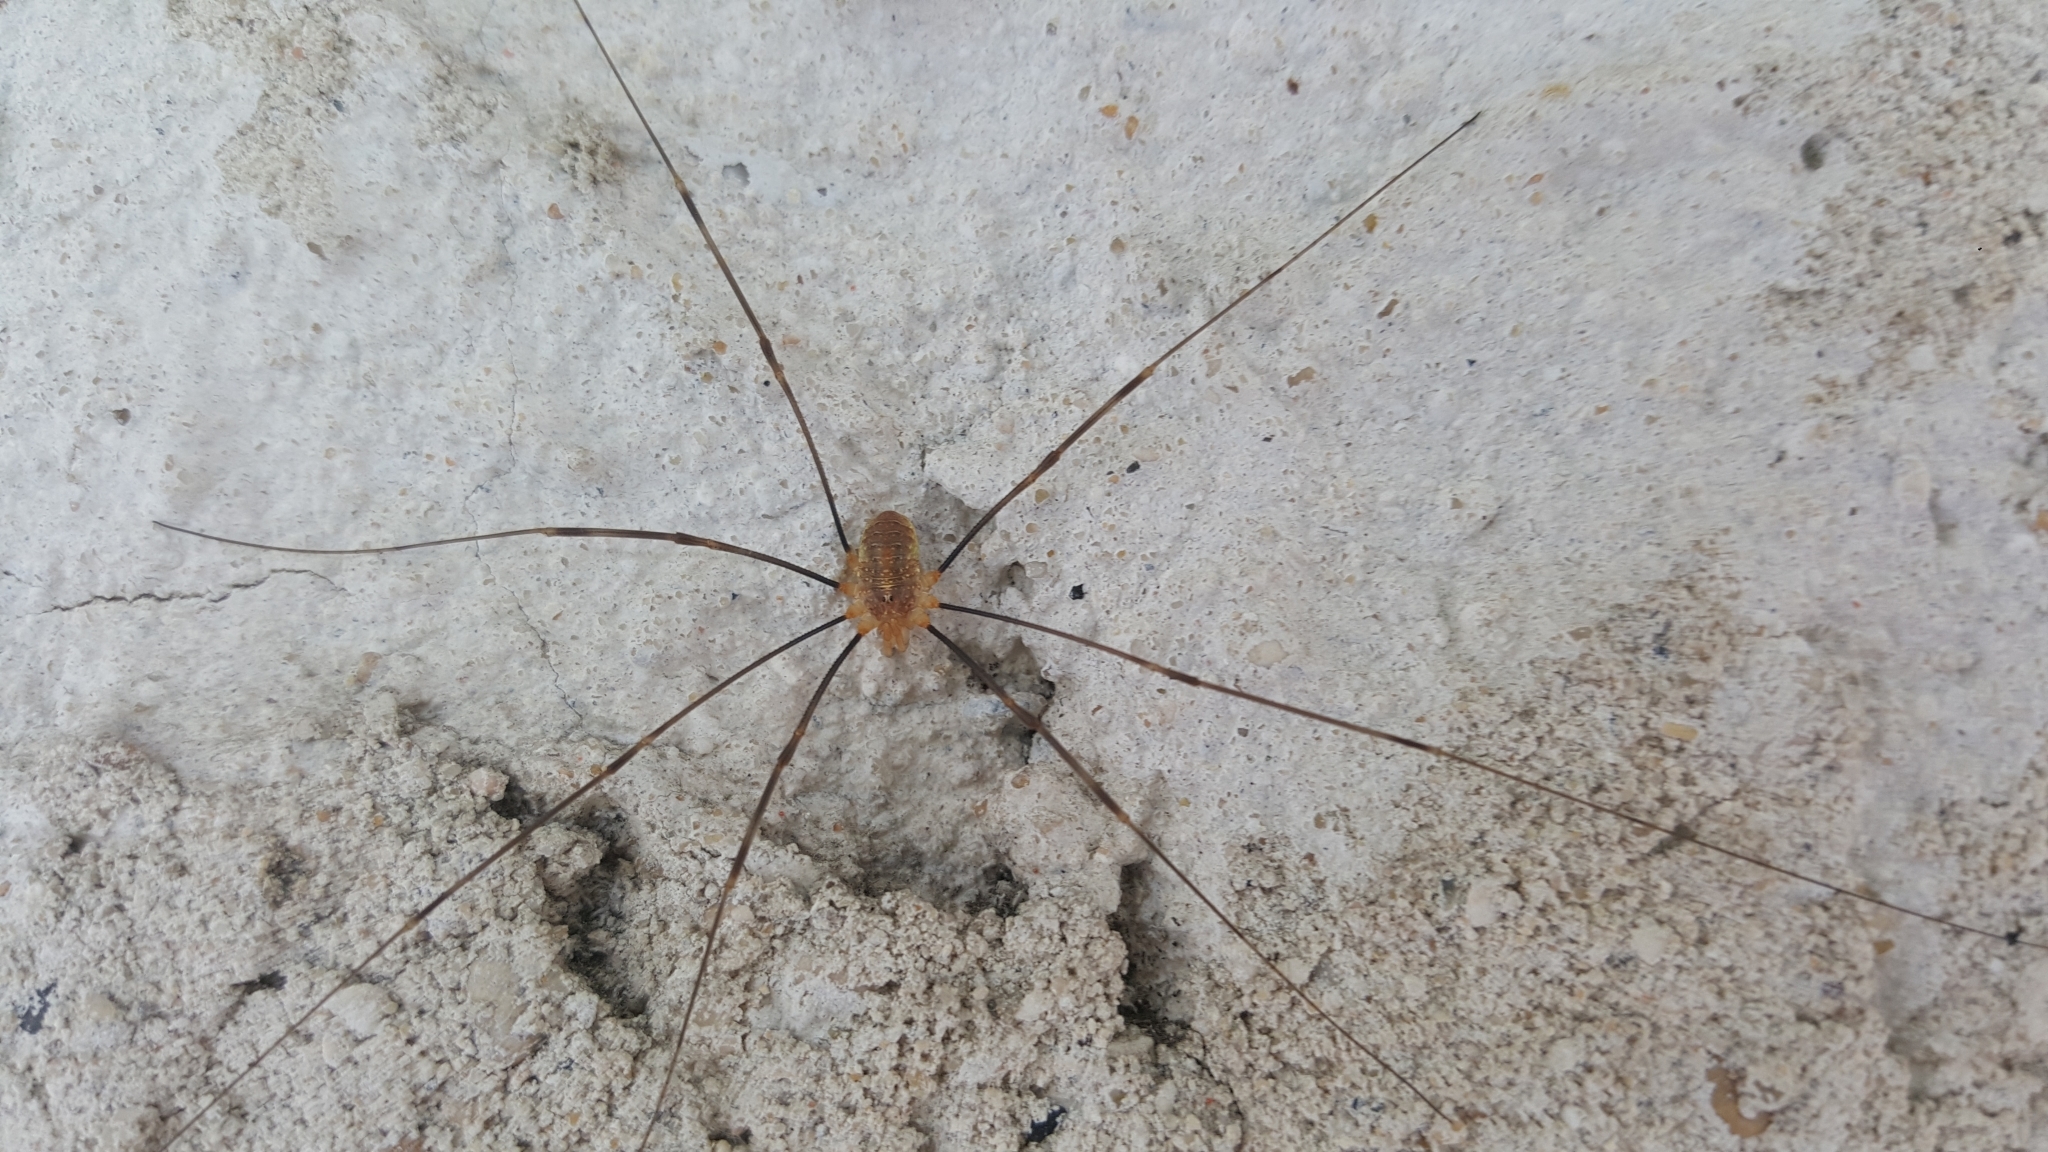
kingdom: Animalia
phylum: Arthropoda
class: Arachnida
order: Opiliones
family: Phalangiidae
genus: Opilio
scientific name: Opilio canestrinii
